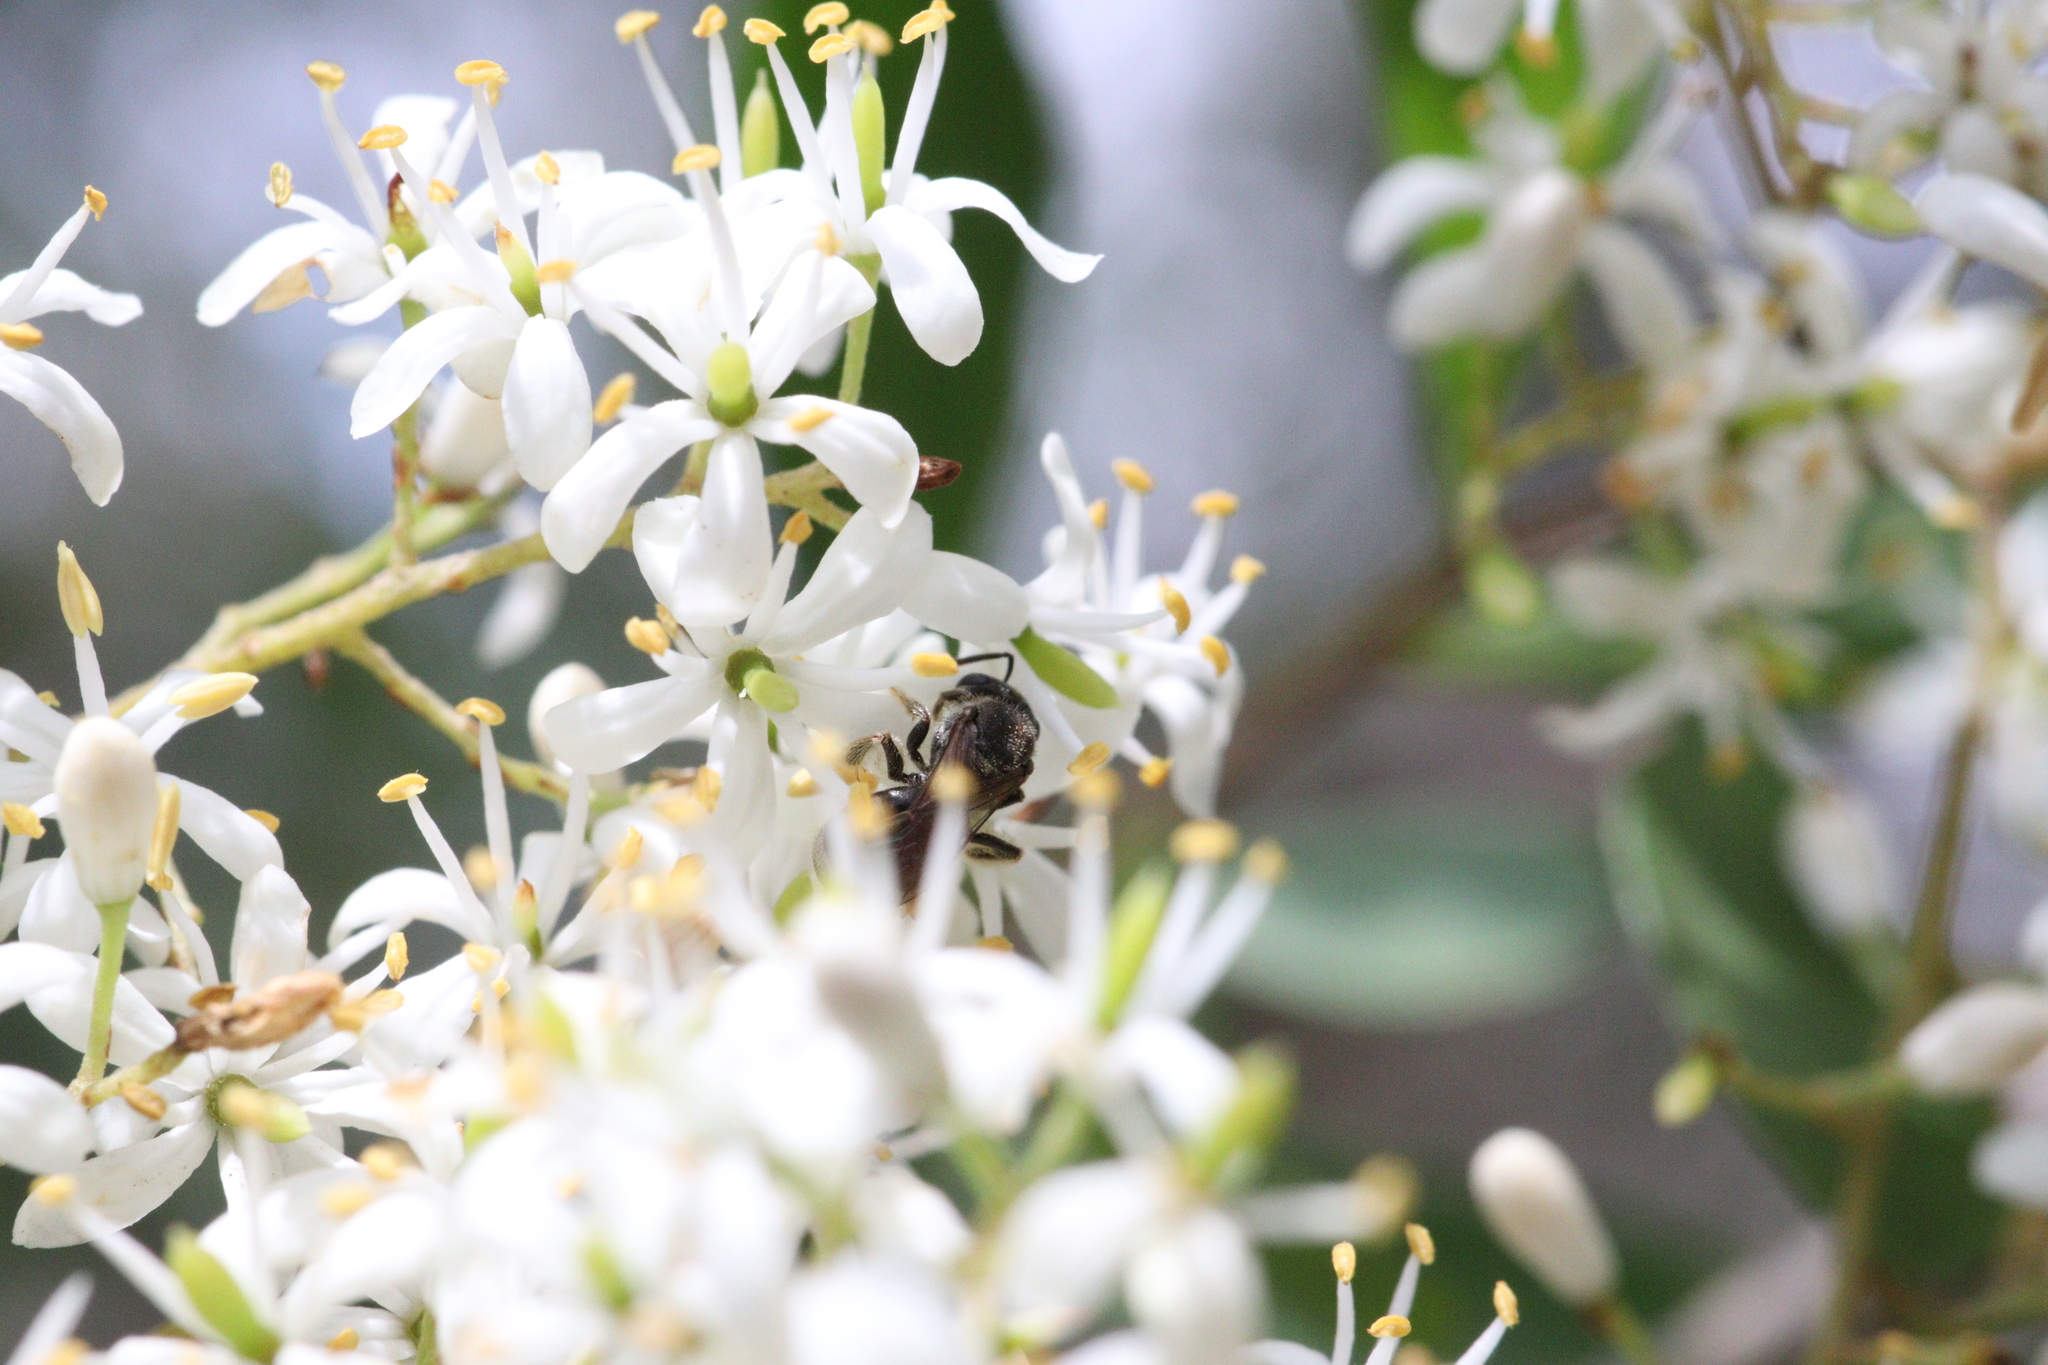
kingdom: Plantae
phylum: Tracheophyta
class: Magnoliopsida
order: Apiales
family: Pittosporaceae
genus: Bursaria
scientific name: Bursaria spinosa
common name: Australian blackthorn
